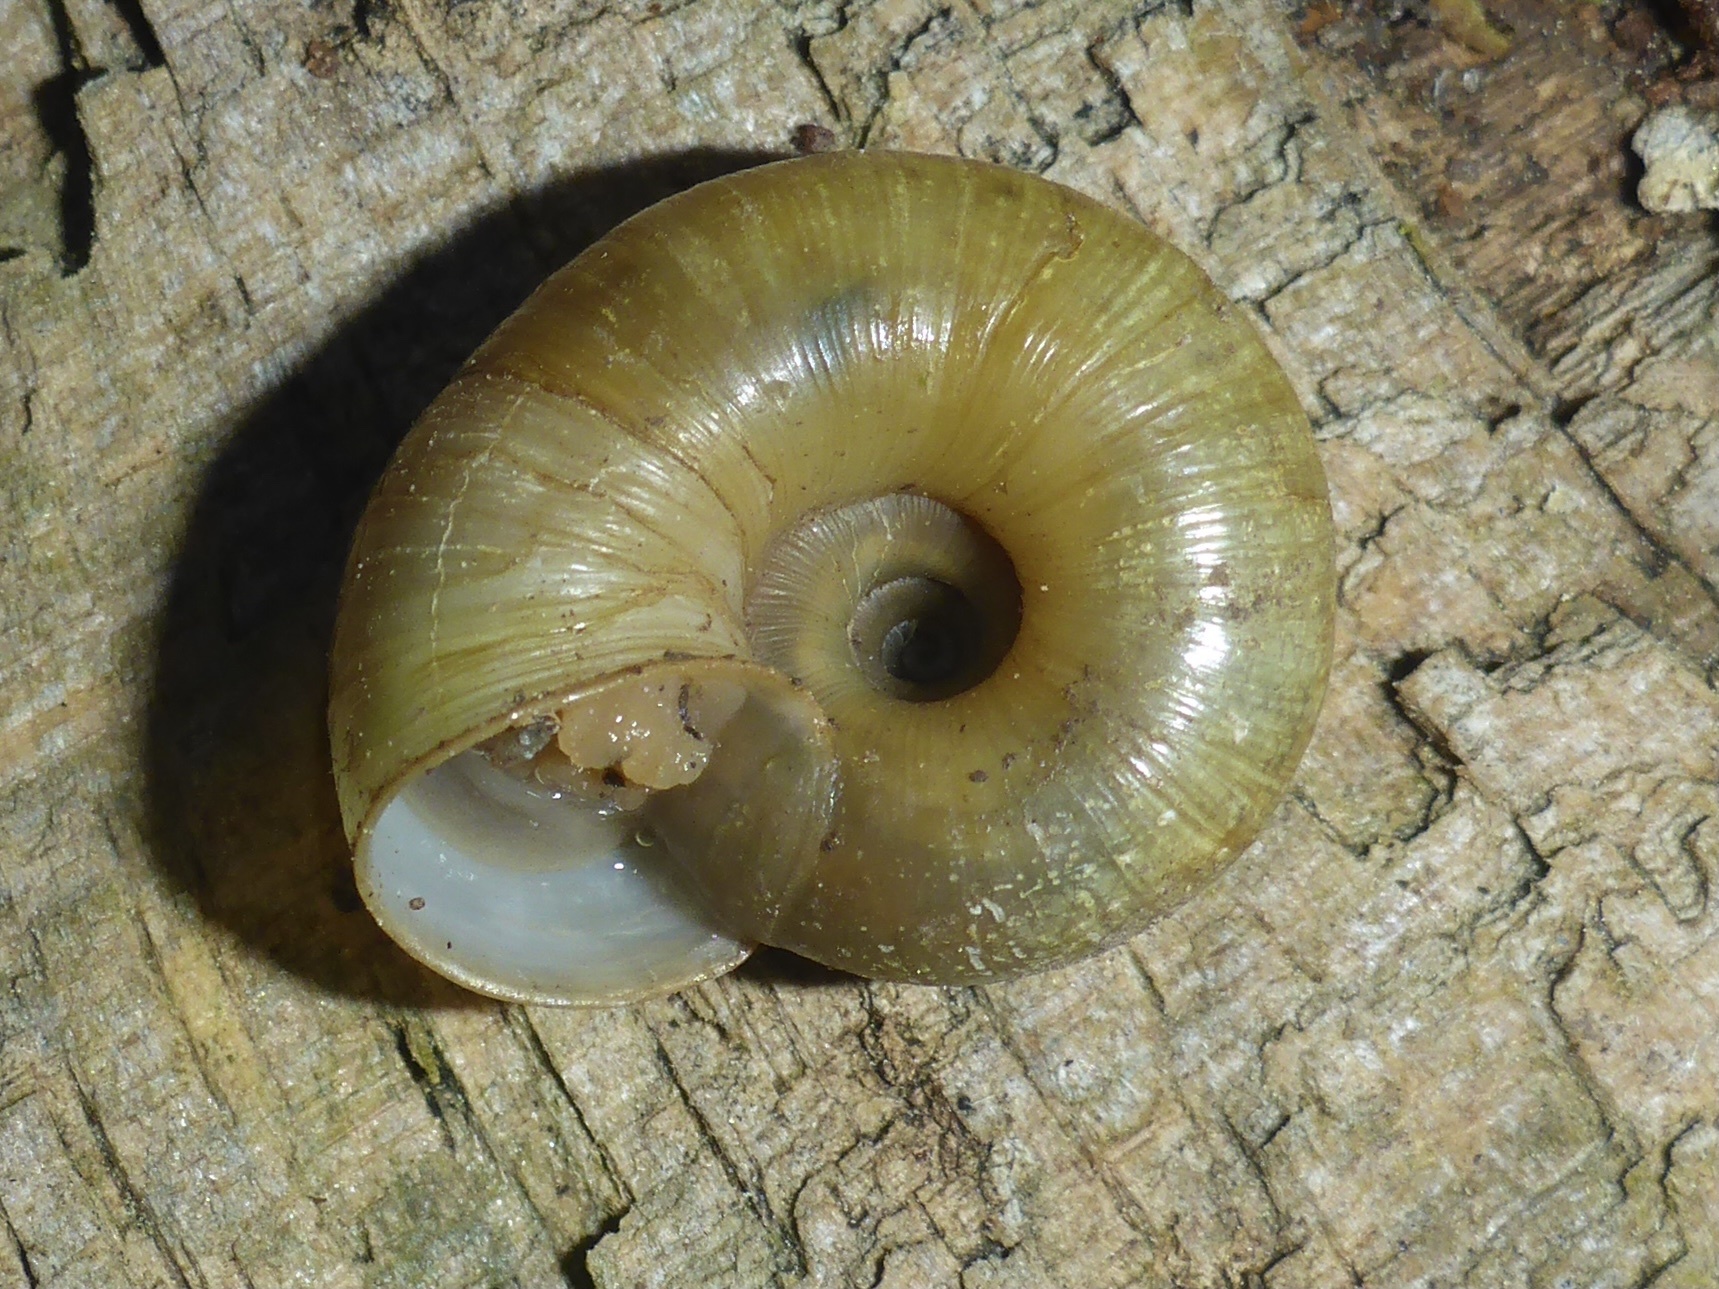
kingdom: Animalia
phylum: Mollusca
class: Gastropoda
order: Stylommatophora
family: Haplotrematidae
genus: Haplotrema
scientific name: Haplotrema minimum
